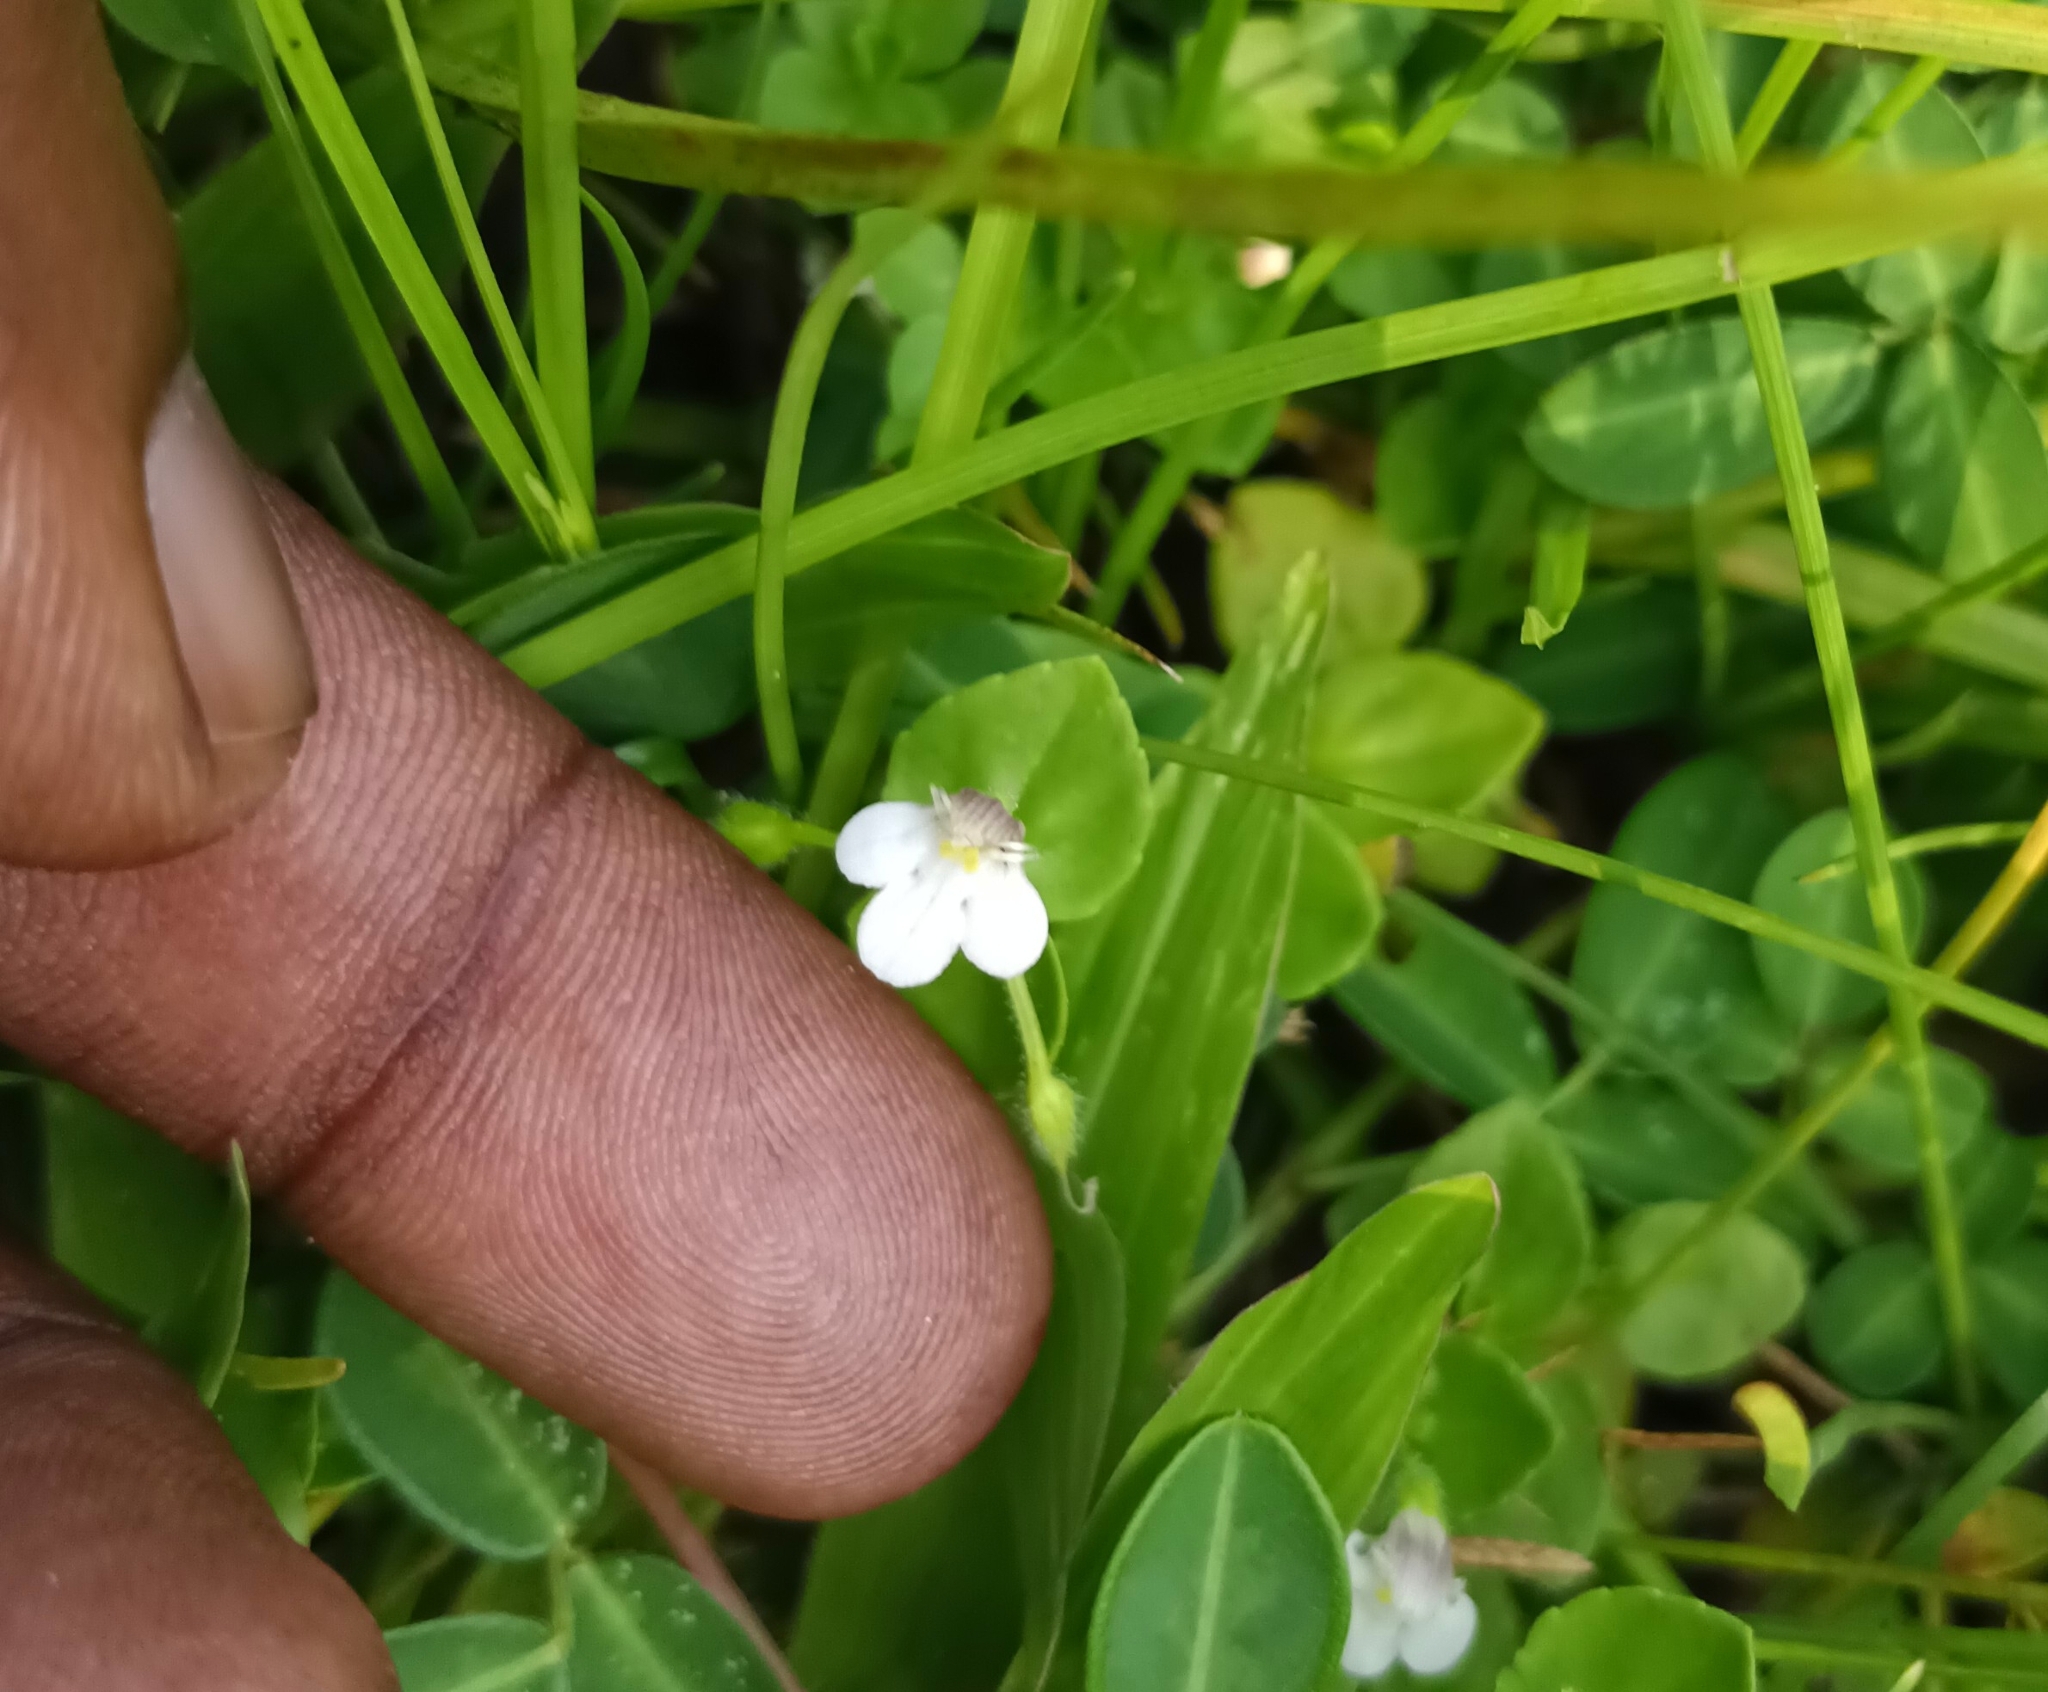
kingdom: Plantae
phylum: Tracheophyta
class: Magnoliopsida
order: Lamiales
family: Linderniaceae
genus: Yamazakia
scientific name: Yamazakia pusilla
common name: Tiny slitwort
